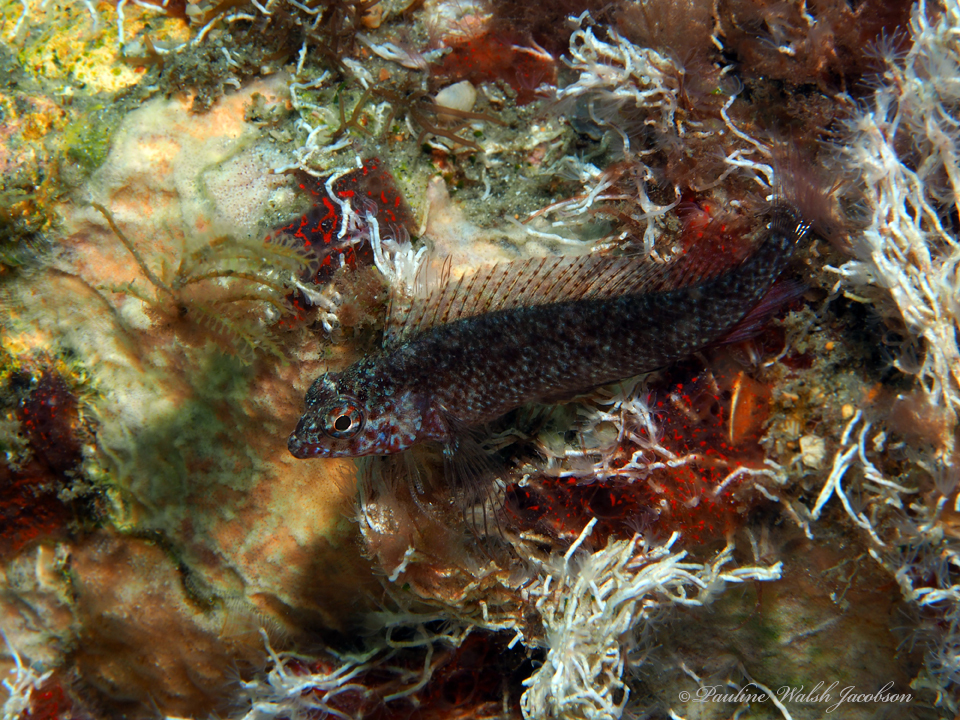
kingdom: Animalia
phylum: Chordata
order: Perciformes
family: Labrisomidae
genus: Malacoctenus
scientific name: Malacoctenus macropus
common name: Rosy blenny
